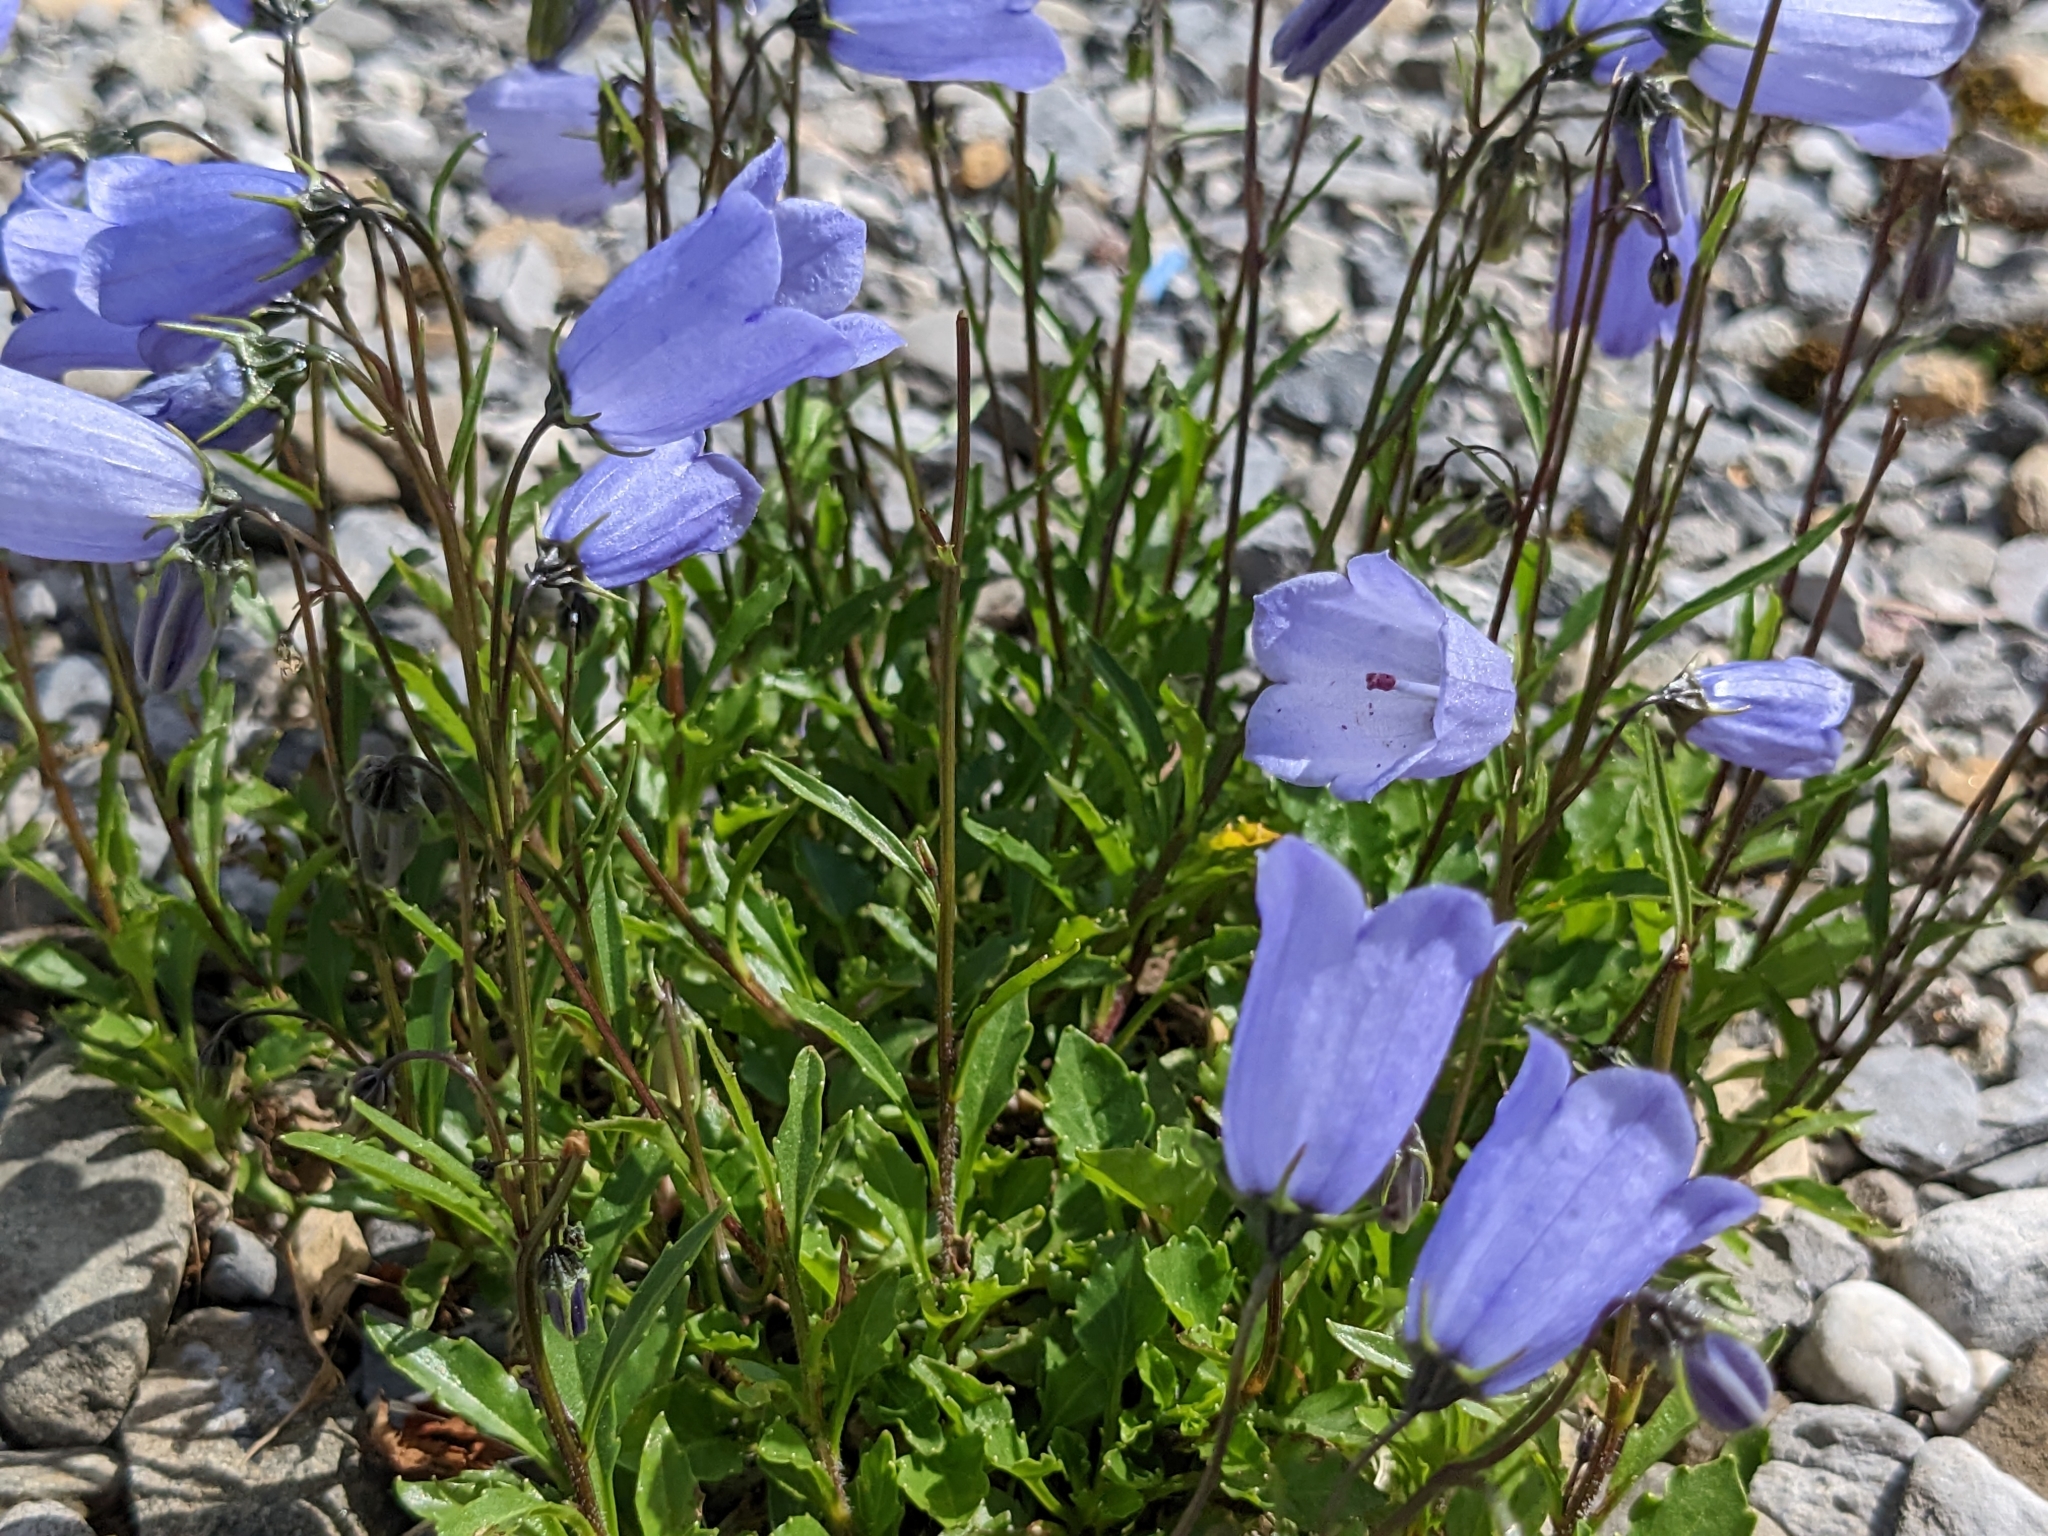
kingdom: Plantae
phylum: Tracheophyta
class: Magnoliopsida
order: Asterales
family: Campanulaceae
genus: Campanula
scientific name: Campanula cochleariifolia
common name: Fairies'-thimbles
